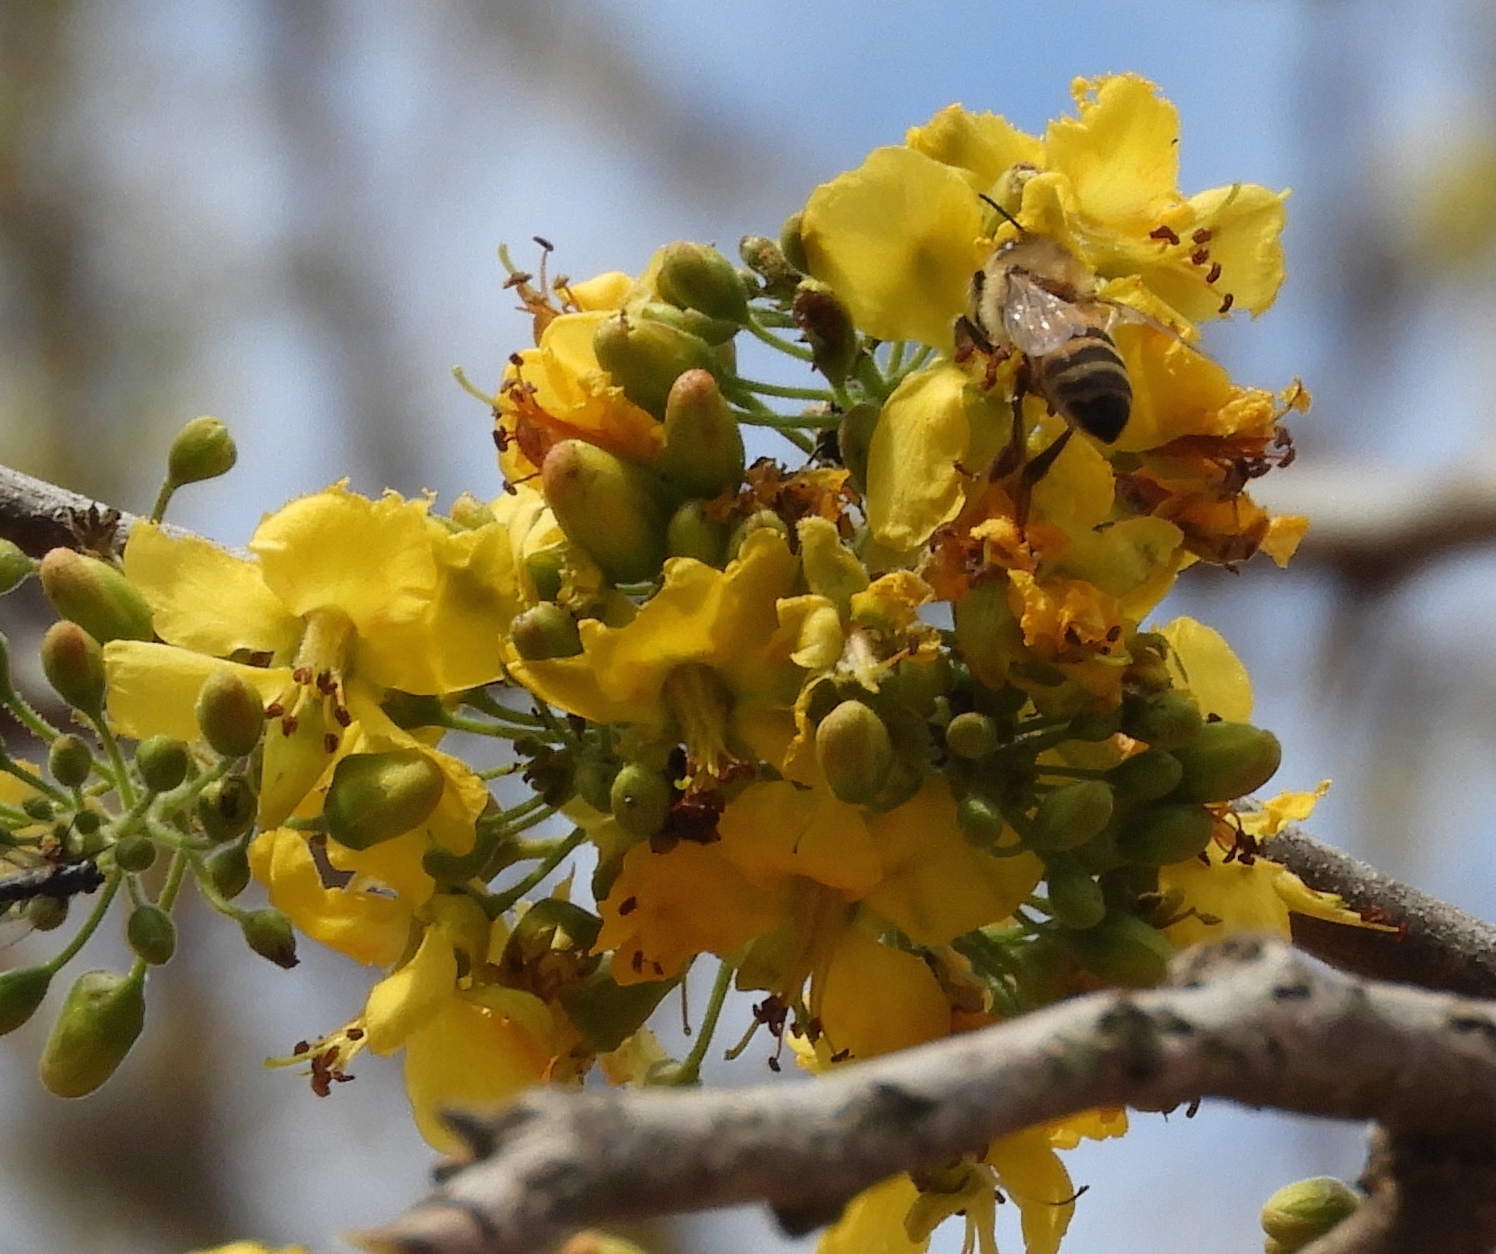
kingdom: Animalia
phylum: Arthropoda
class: Insecta
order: Hymenoptera
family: Apidae
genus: Apis
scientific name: Apis mellifera
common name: Honey bee
